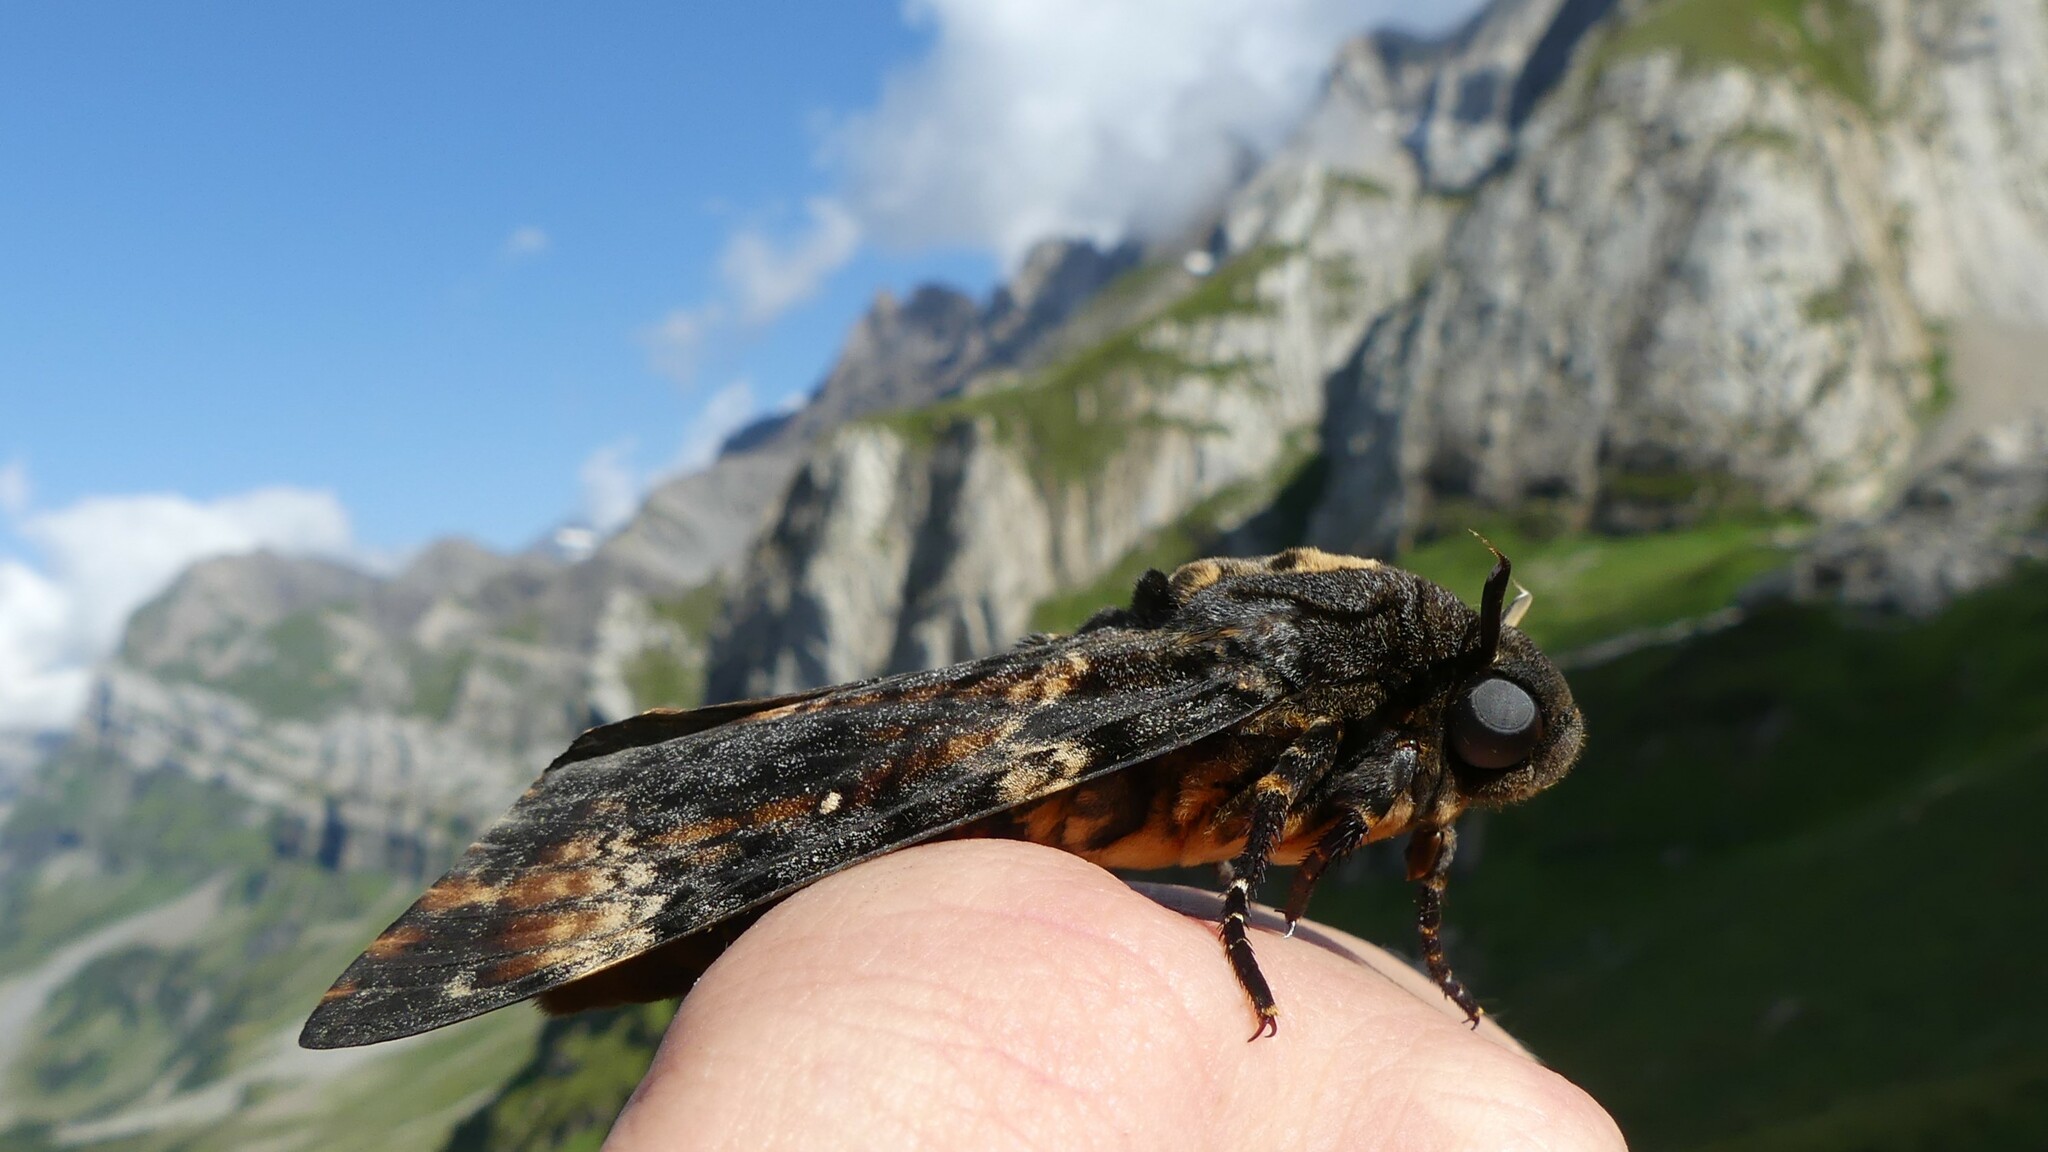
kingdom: Animalia
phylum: Arthropoda
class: Insecta
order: Lepidoptera
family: Sphingidae
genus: Acherontia
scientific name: Acherontia atropos
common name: Death's-head hawk moth
